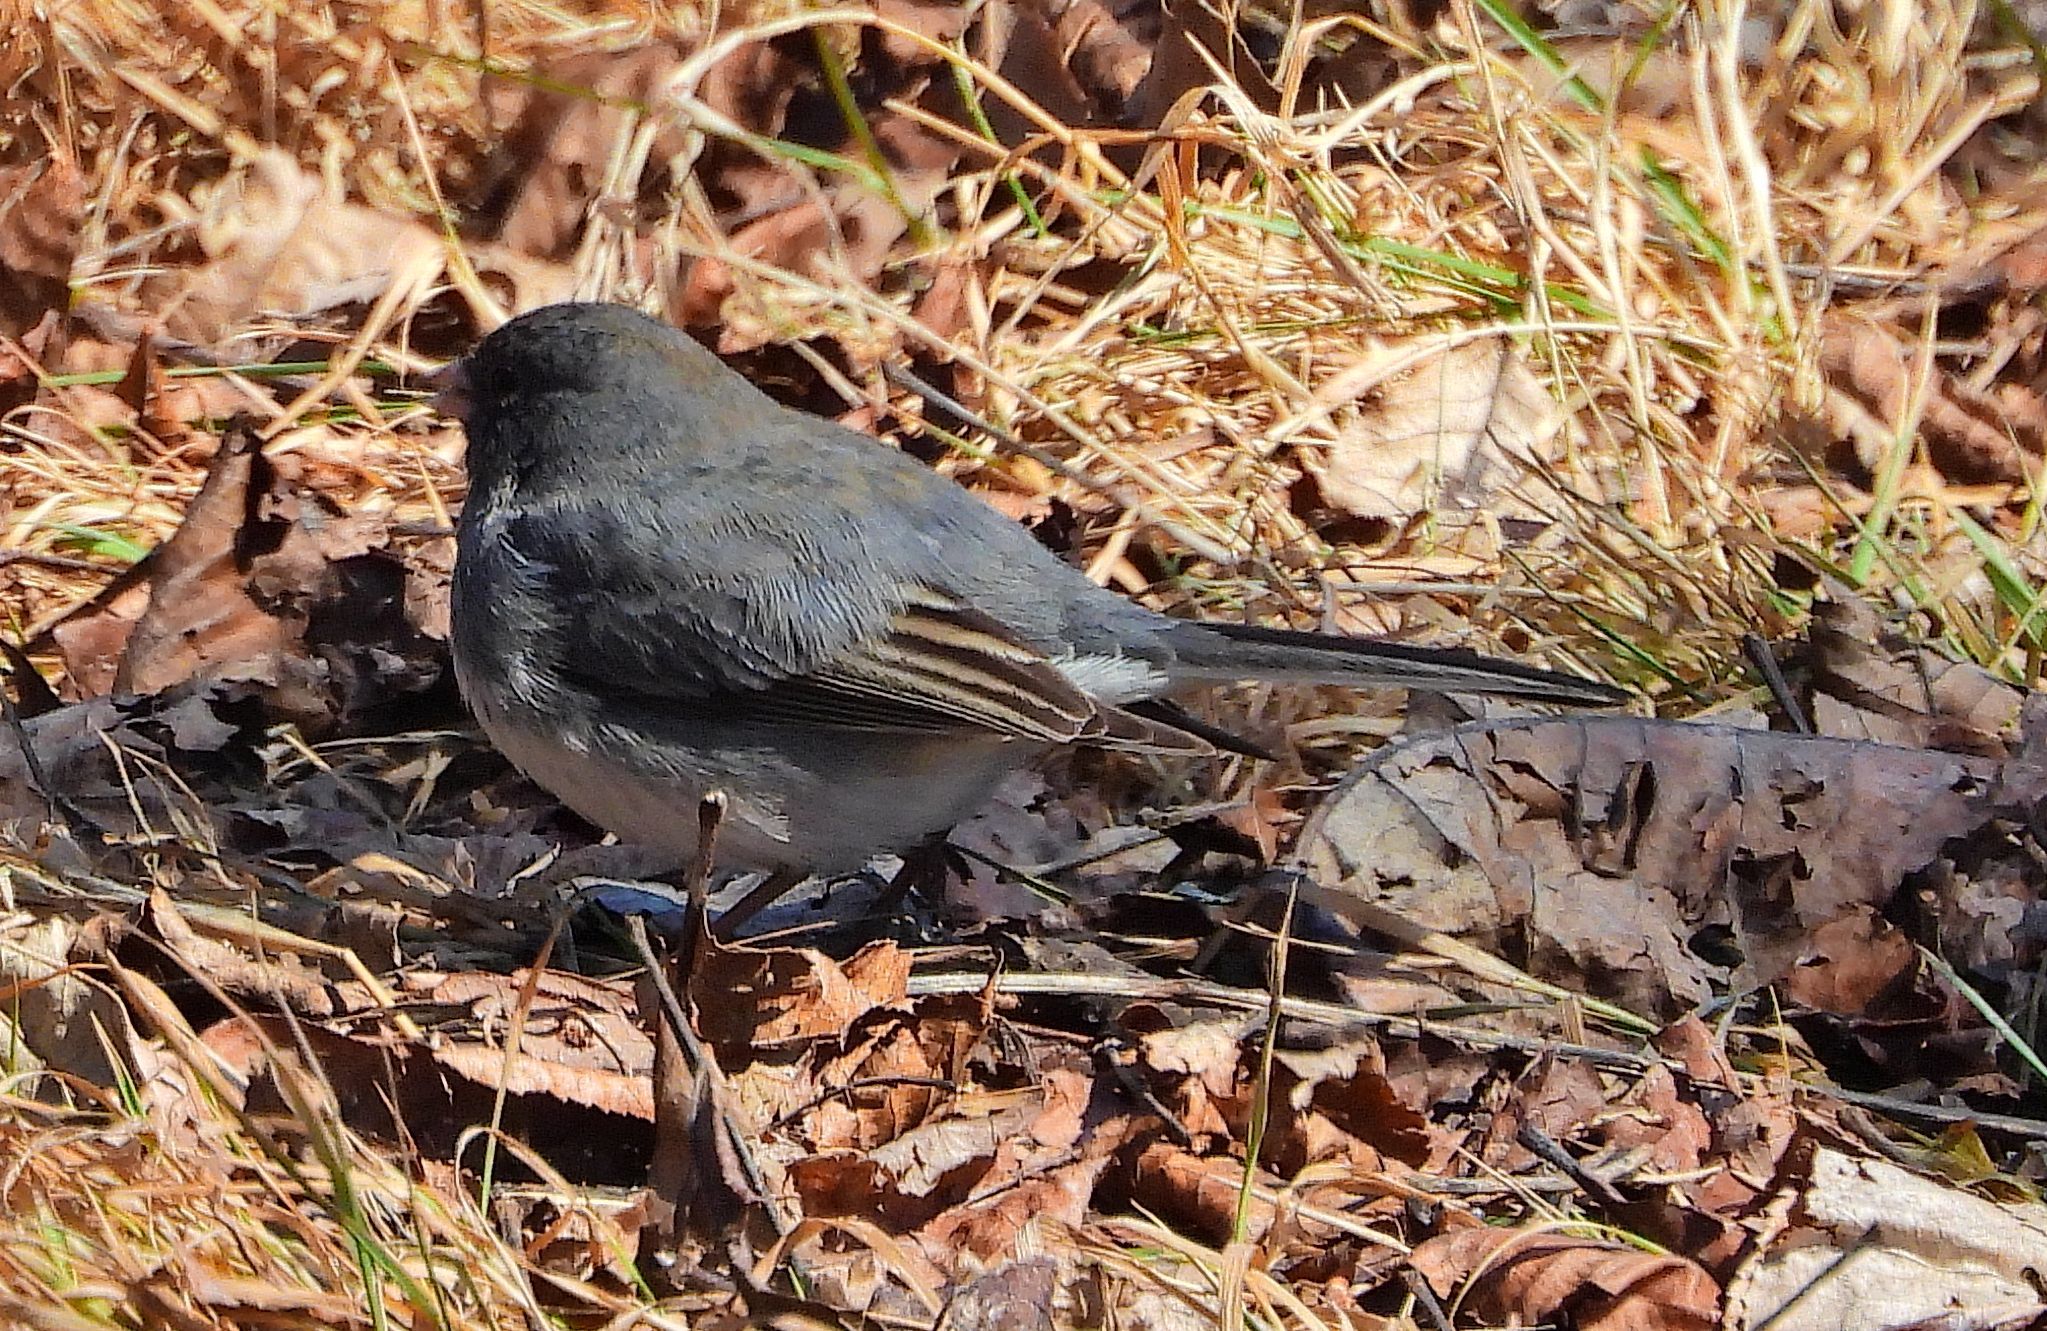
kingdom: Animalia
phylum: Chordata
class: Aves
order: Passeriformes
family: Passerellidae
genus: Junco
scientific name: Junco hyemalis
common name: Dark-eyed junco
